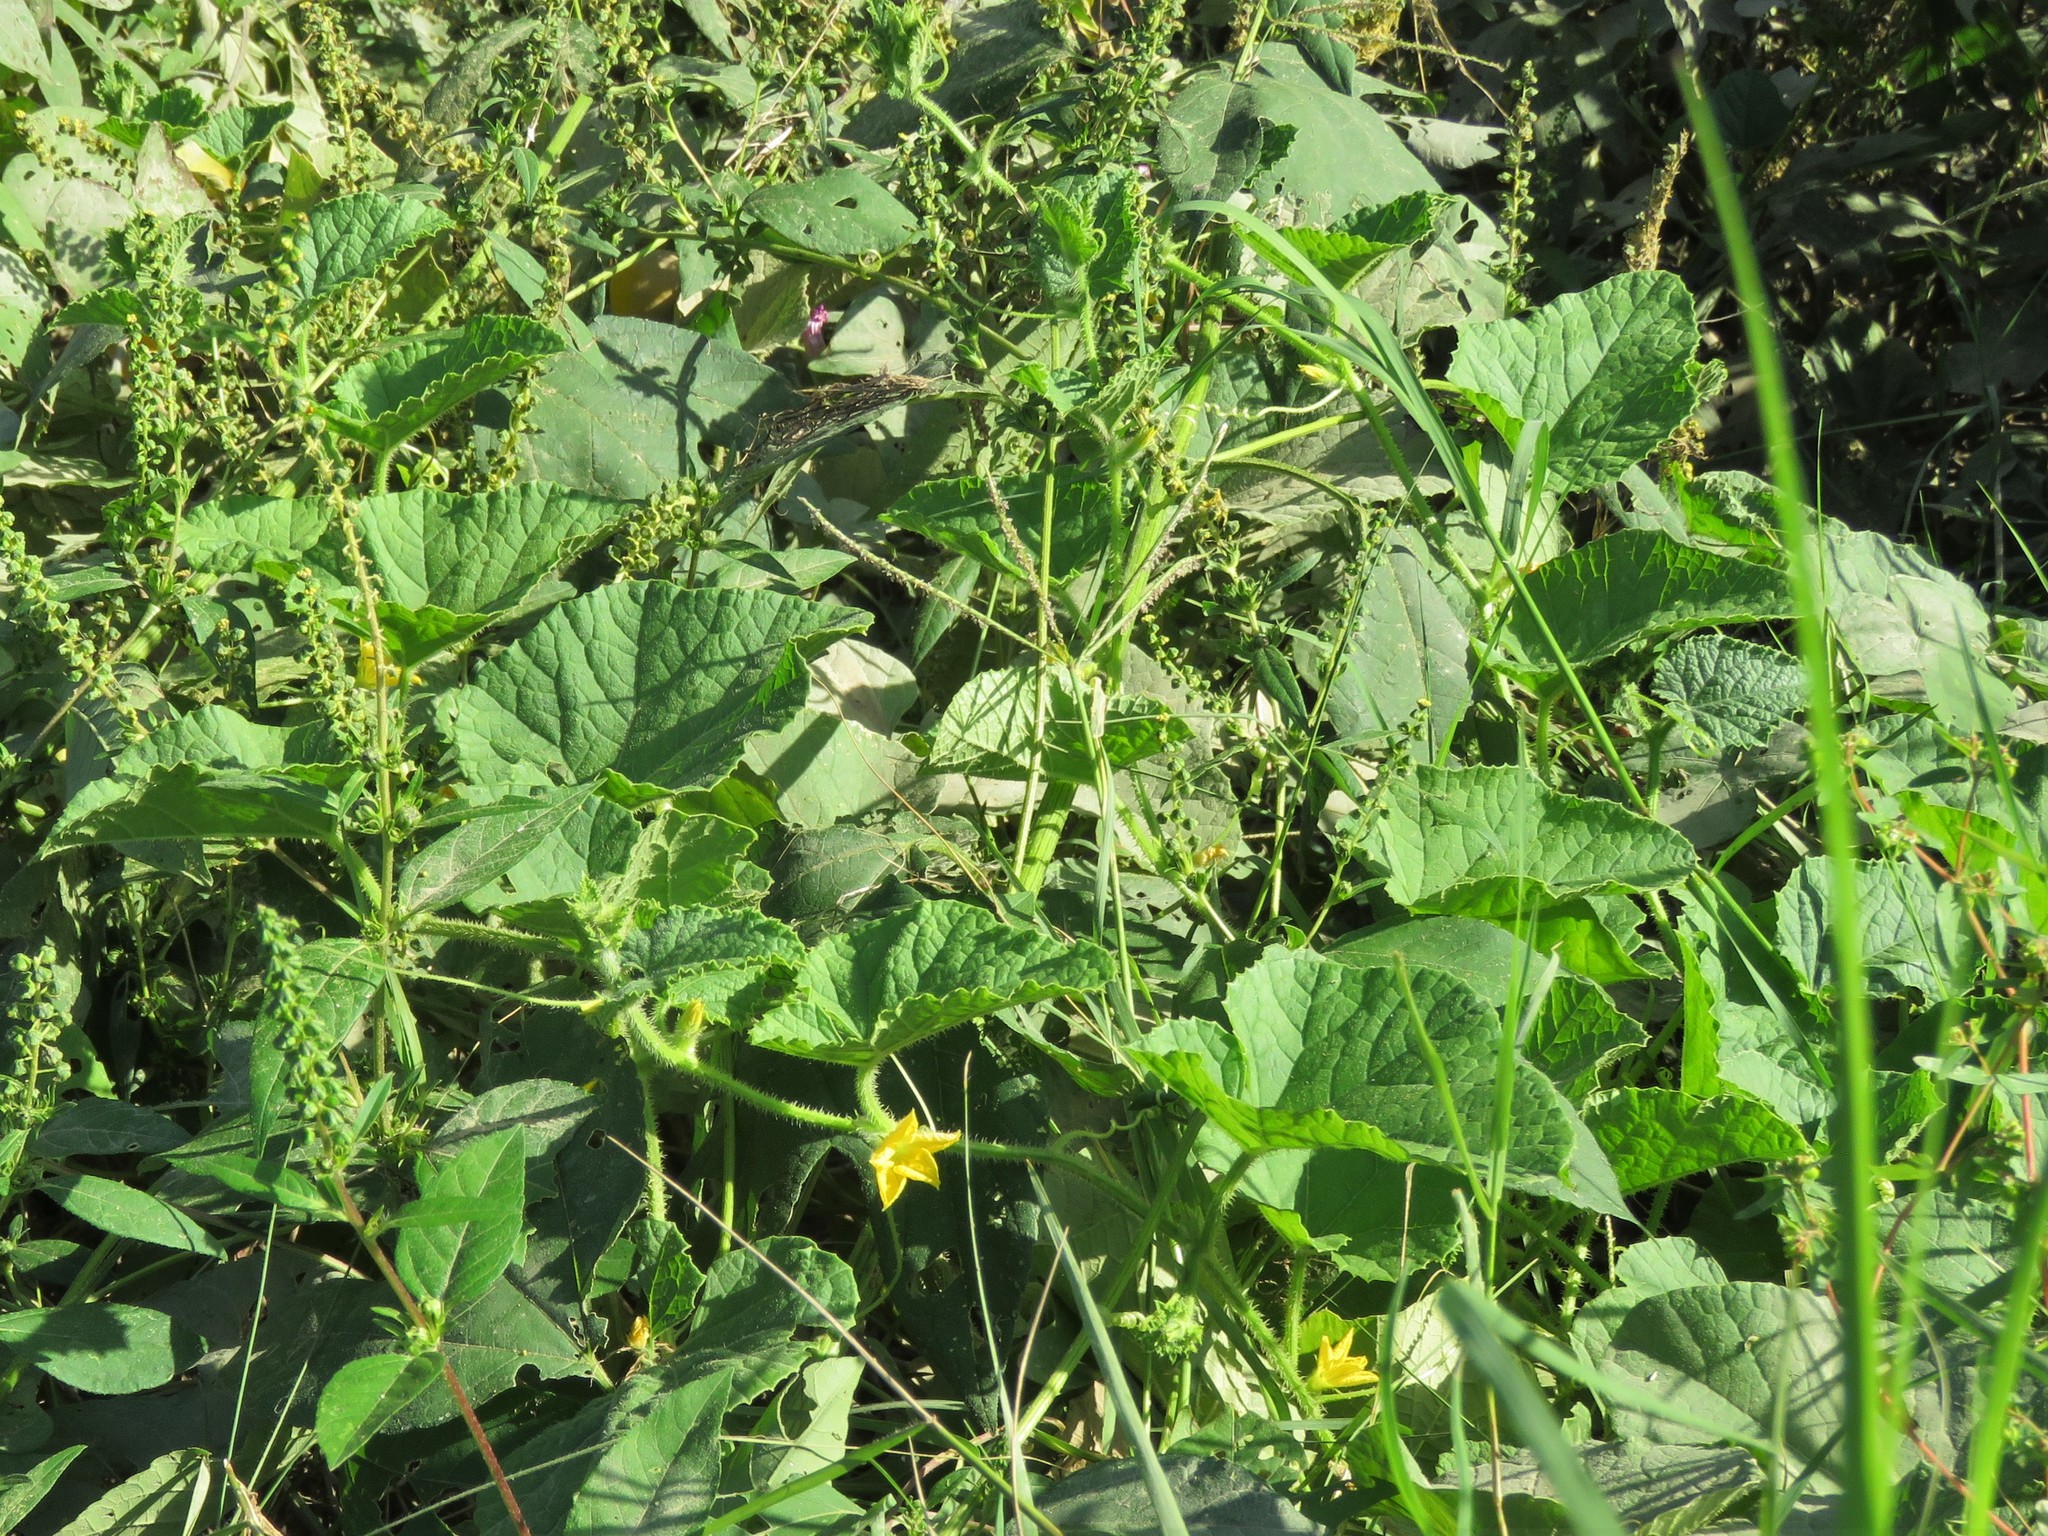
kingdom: Plantae
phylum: Tracheophyta
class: Magnoliopsida
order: Cucurbitales
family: Cucurbitaceae
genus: Cucumis
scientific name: Cucumis melo
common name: Melon
